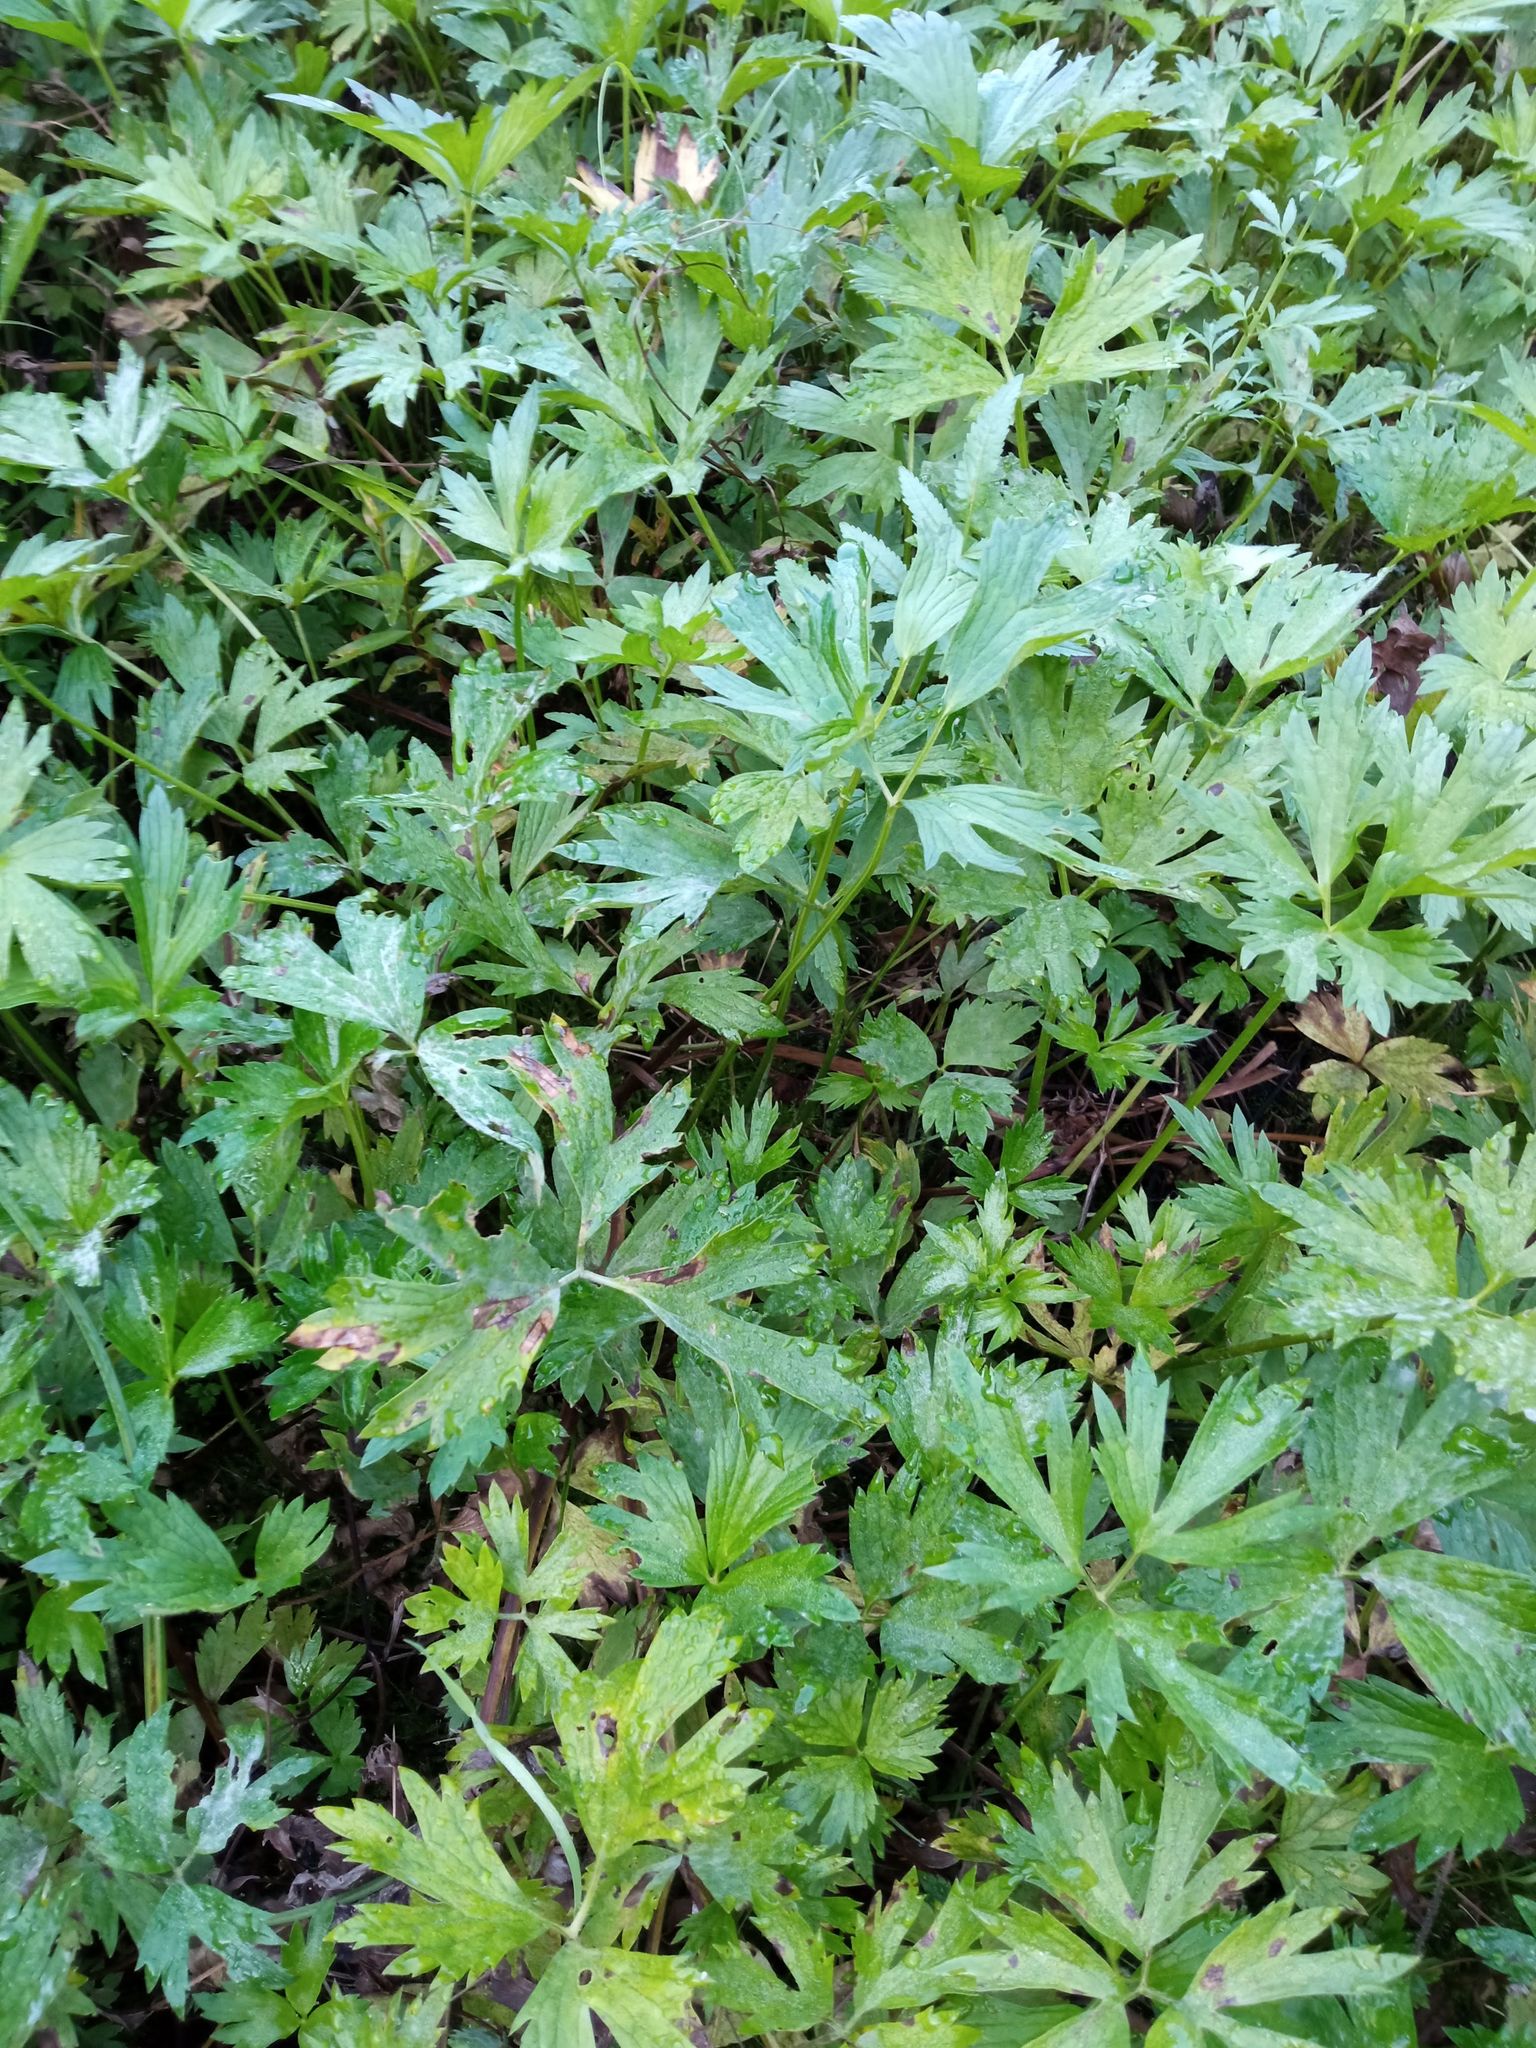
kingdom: Plantae
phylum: Tracheophyta
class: Magnoliopsida
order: Ranunculales
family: Ranunculaceae
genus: Ranunculus
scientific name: Ranunculus repens
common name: Creeping buttercup
